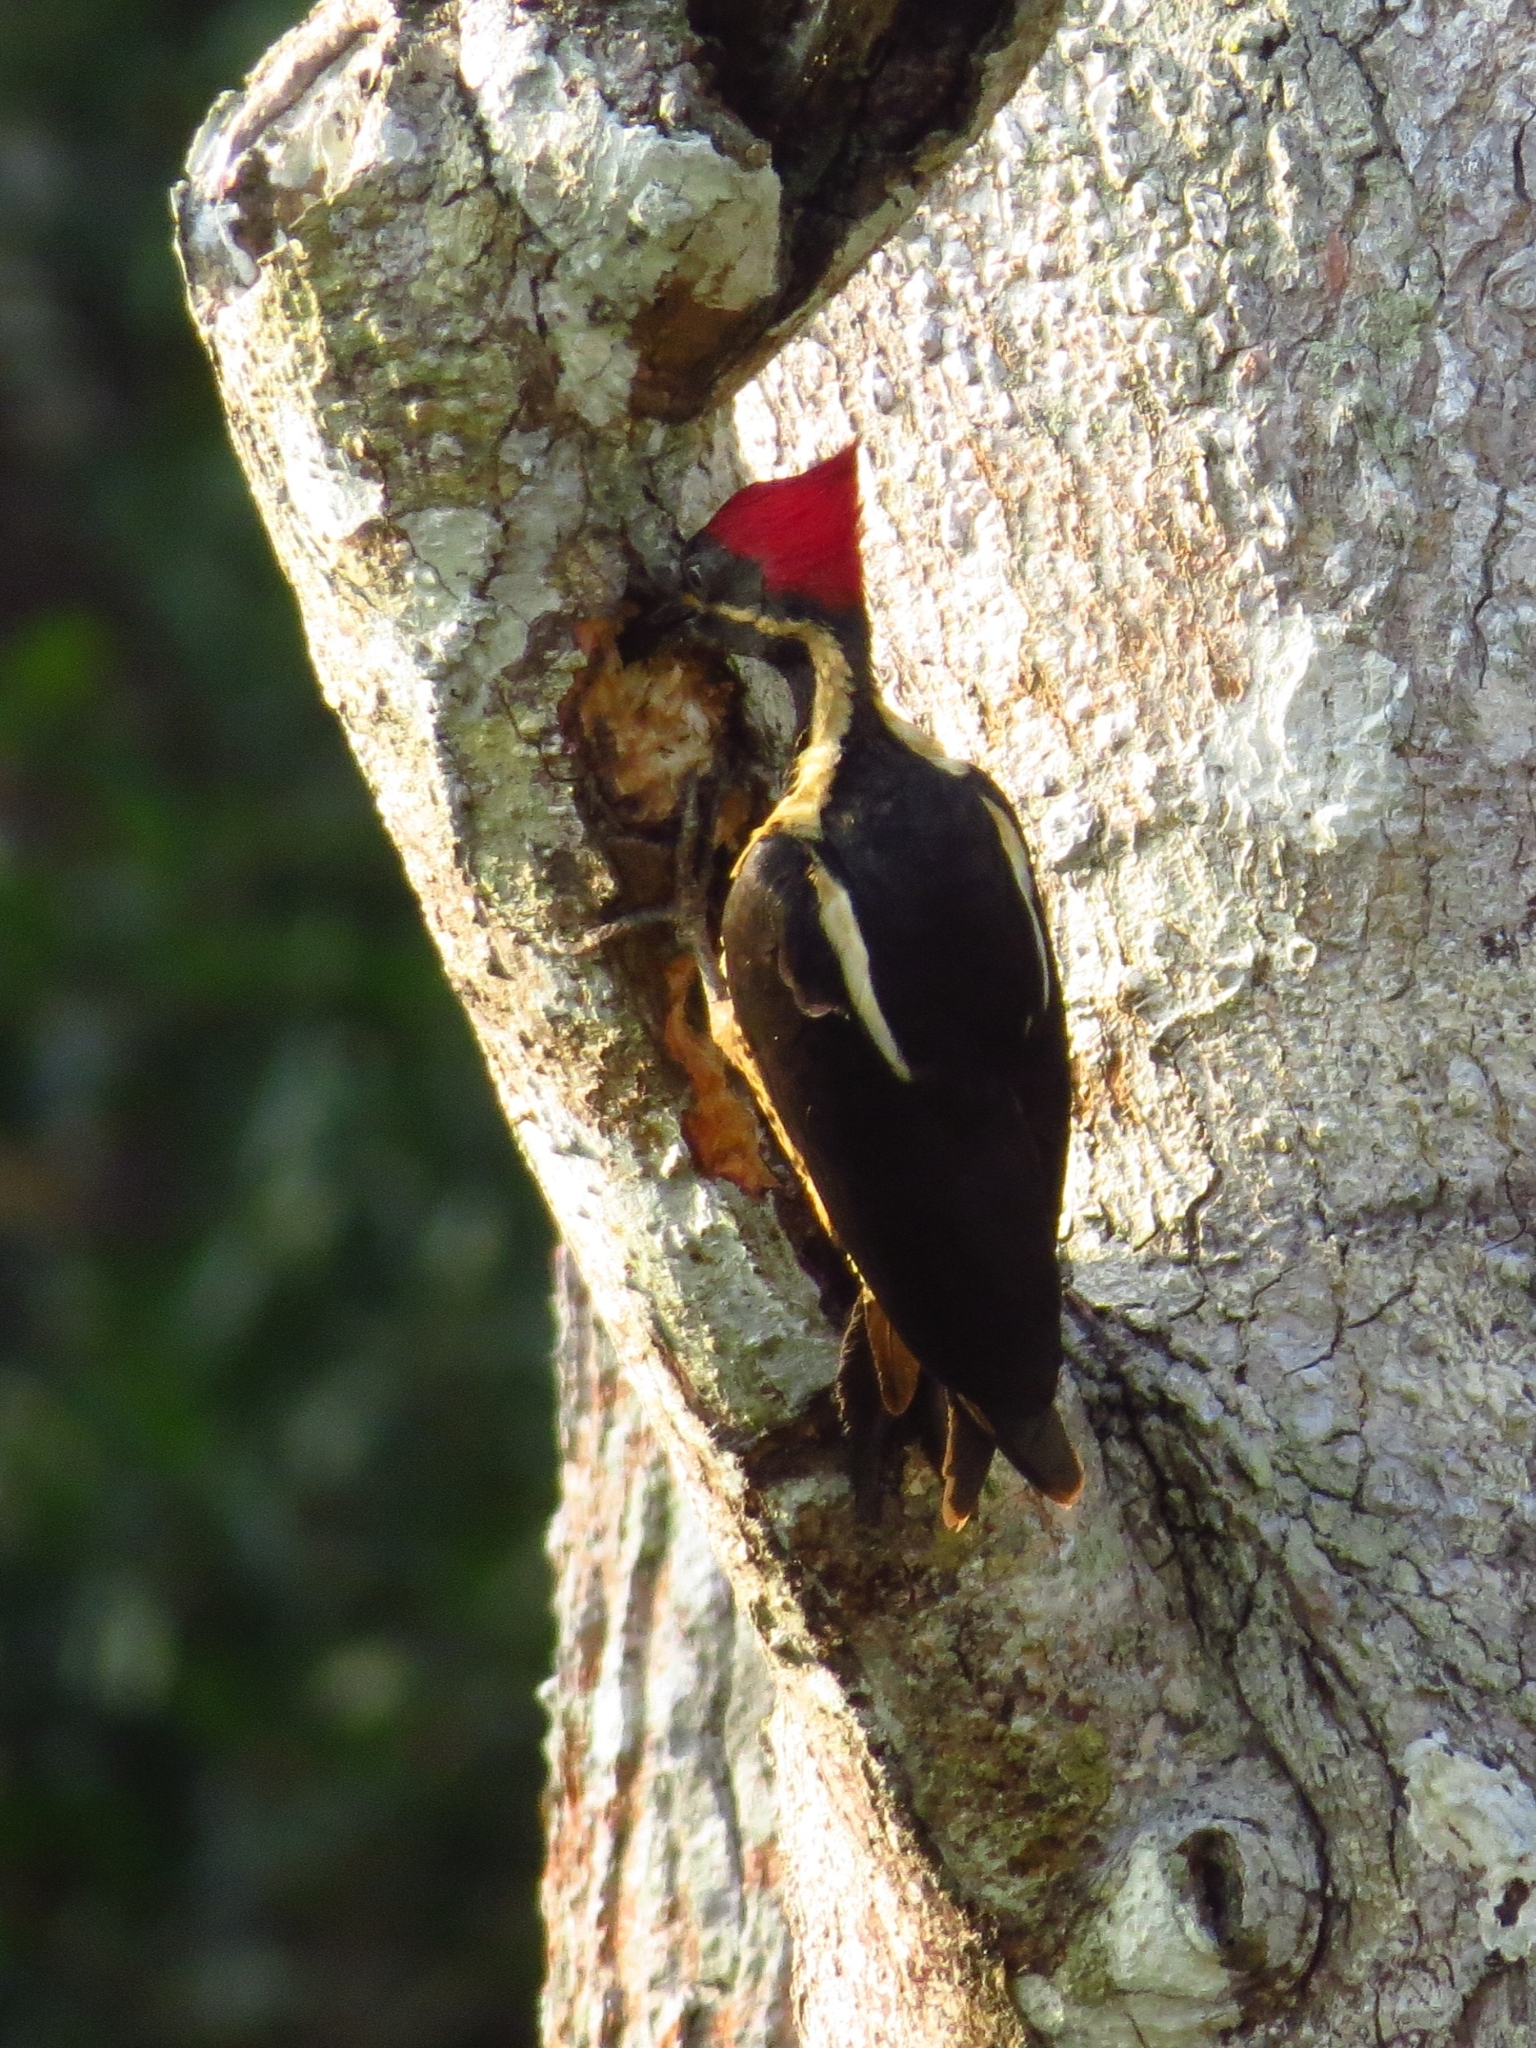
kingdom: Animalia
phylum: Chordata
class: Aves
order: Piciformes
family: Picidae
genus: Dryocopus
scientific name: Dryocopus lineatus
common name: Lineated woodpecker
